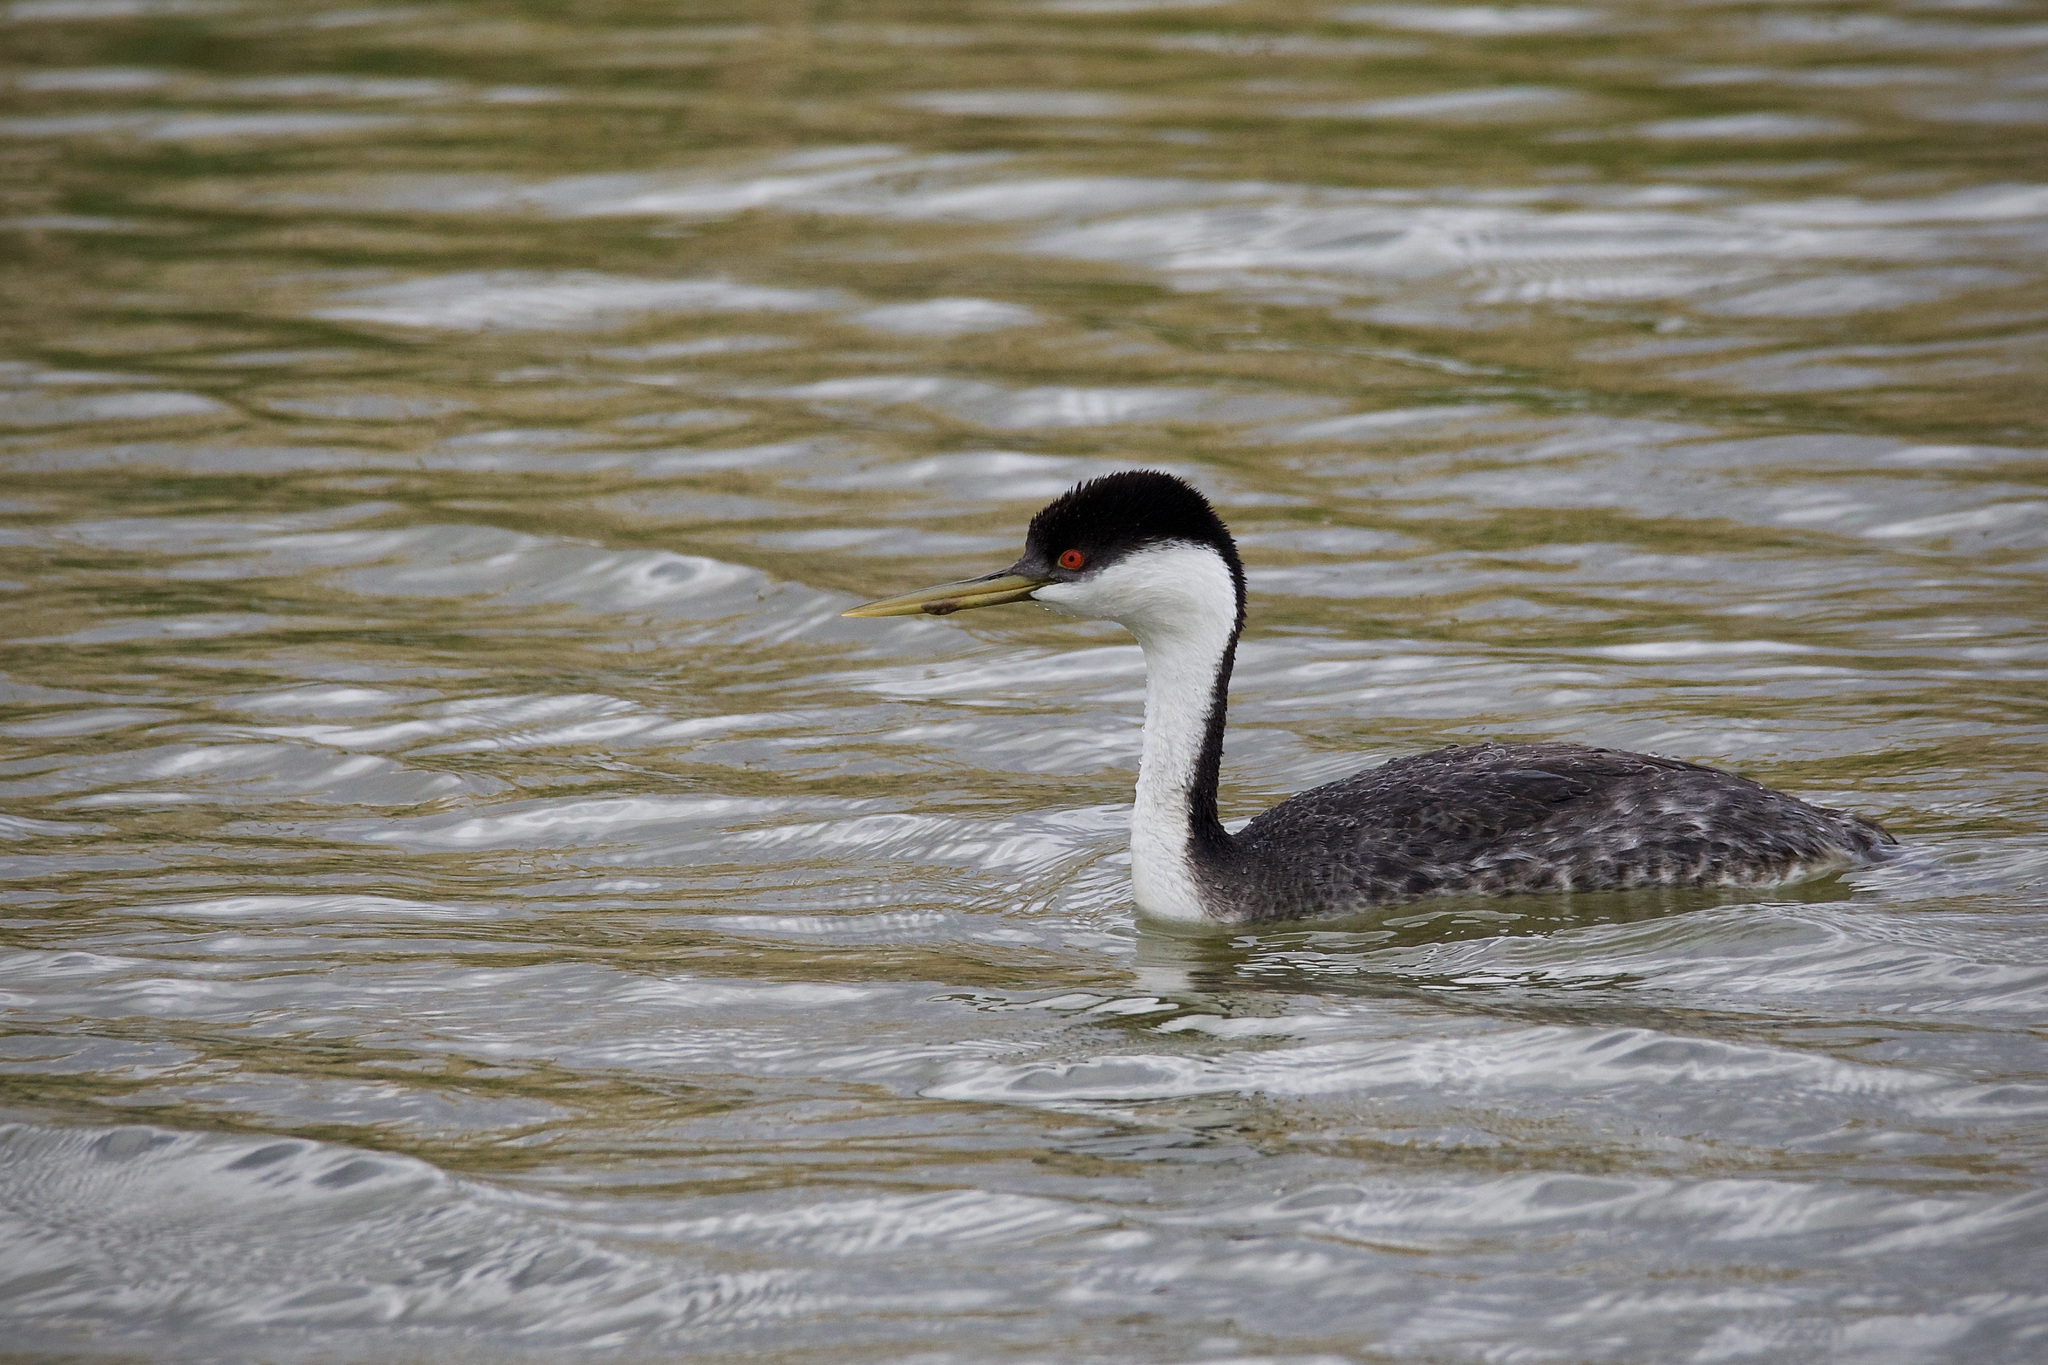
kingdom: Animalia
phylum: Chordata
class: Aves
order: Podicipediformes
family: Podicipedidae
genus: Aechmophorus
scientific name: Aechmophorus occidentalis
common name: Western grebe
